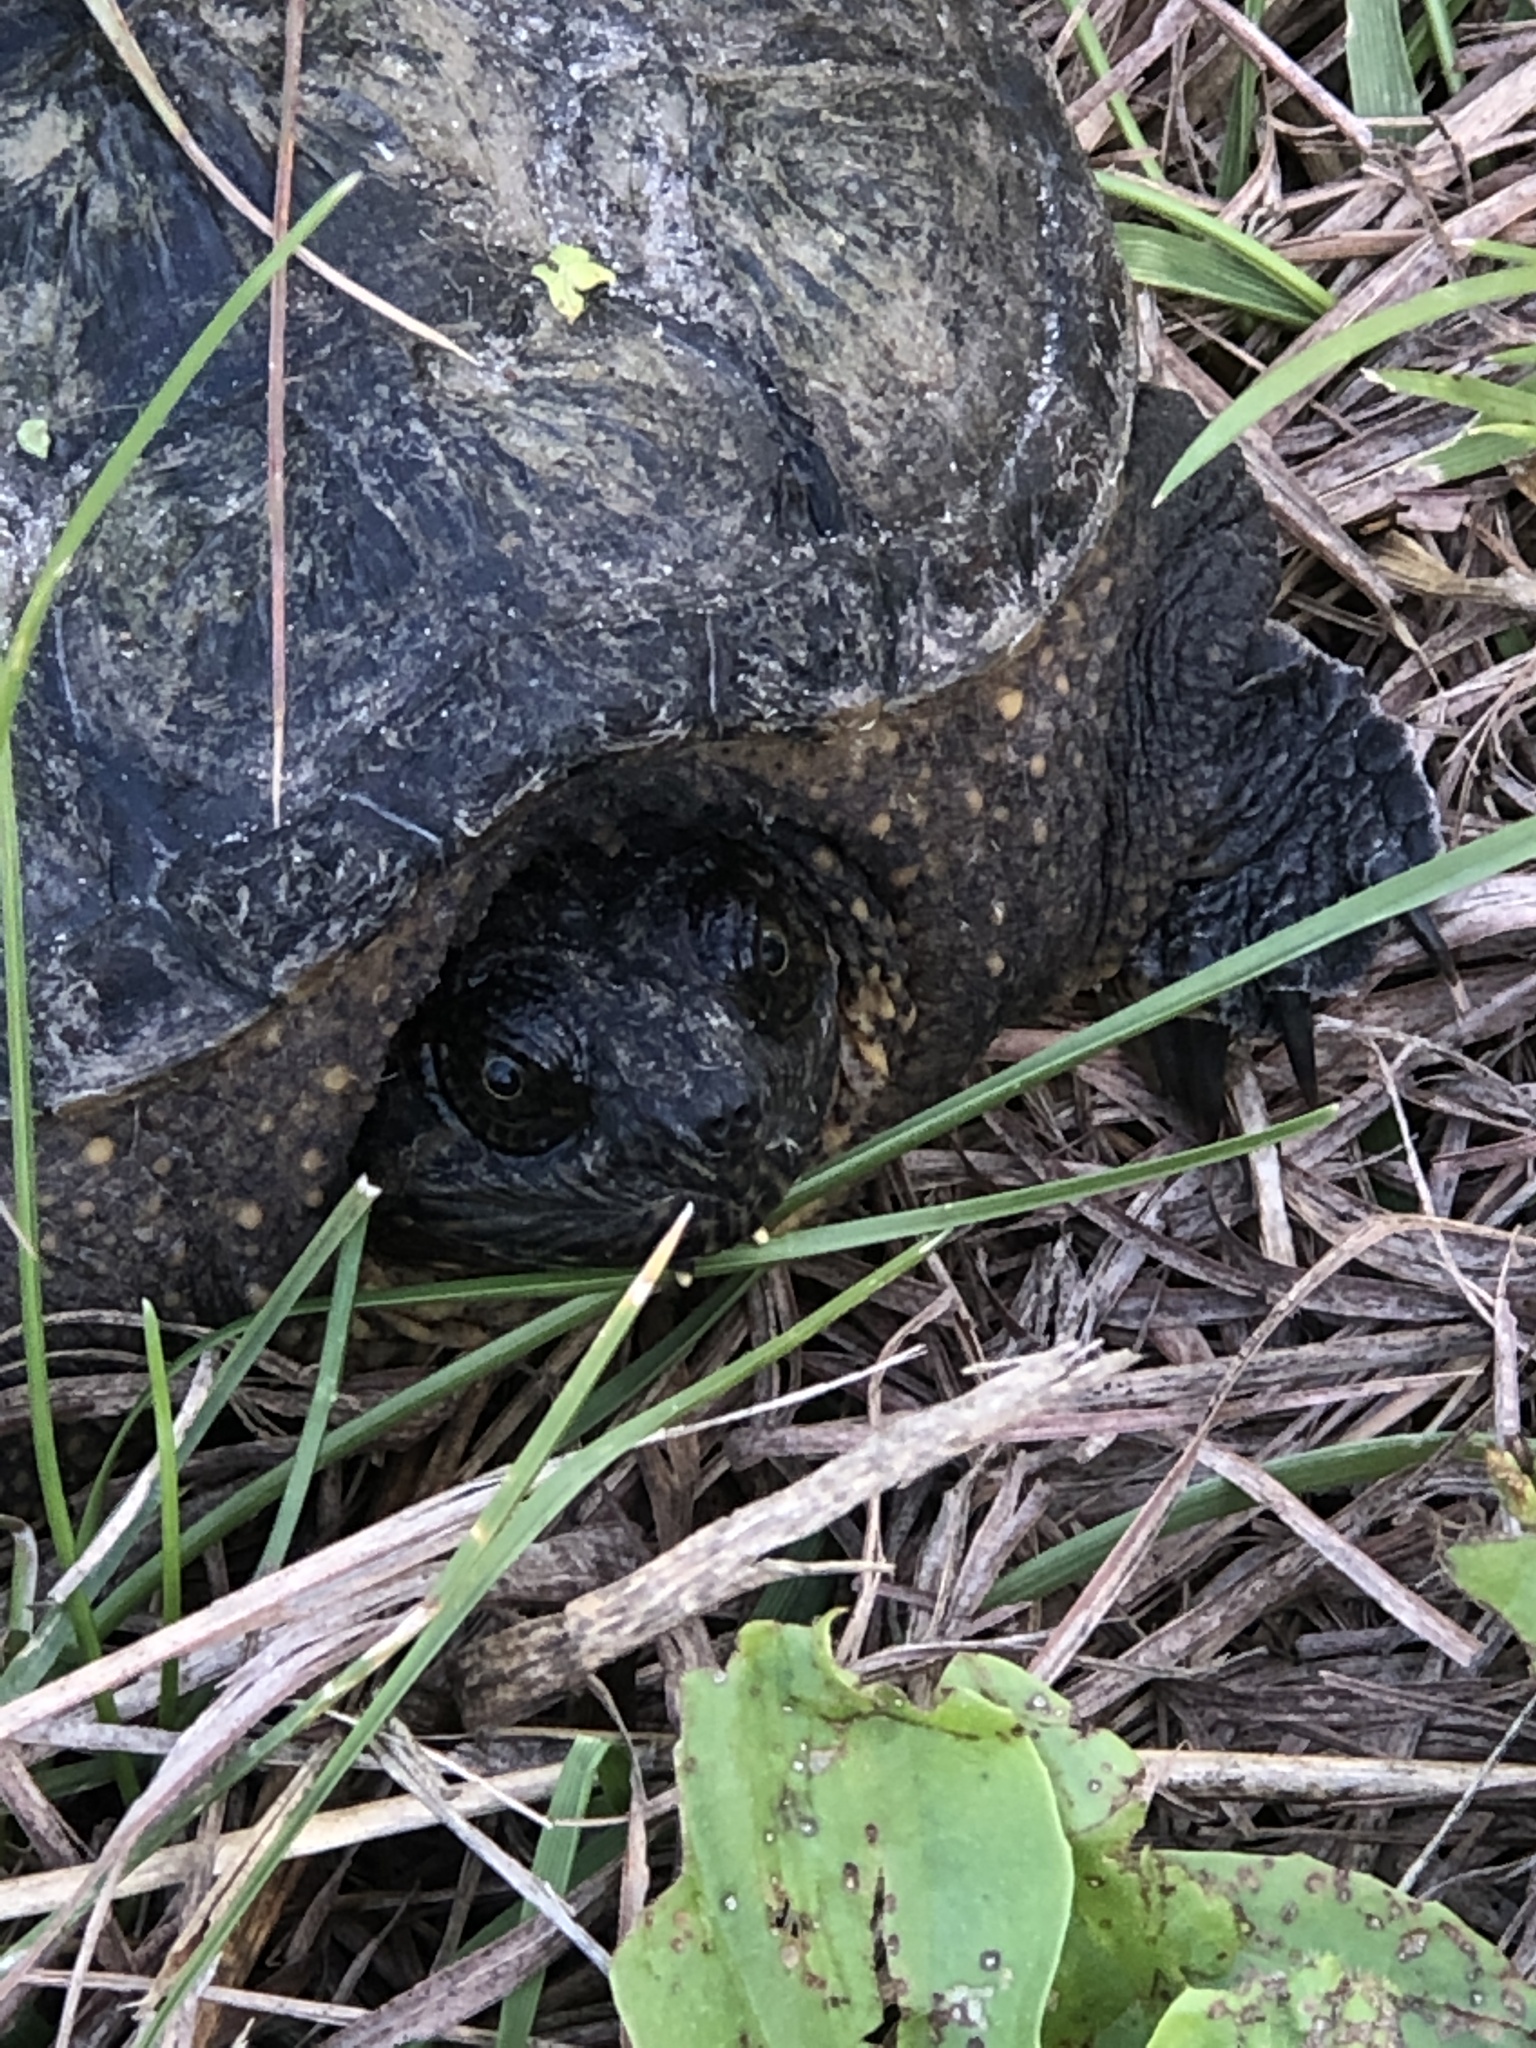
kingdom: Animalia
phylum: Chordata
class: Testudines
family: Chelydridae
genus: Chelydra
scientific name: Chelydra serpentina
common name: Common snapping turtle
